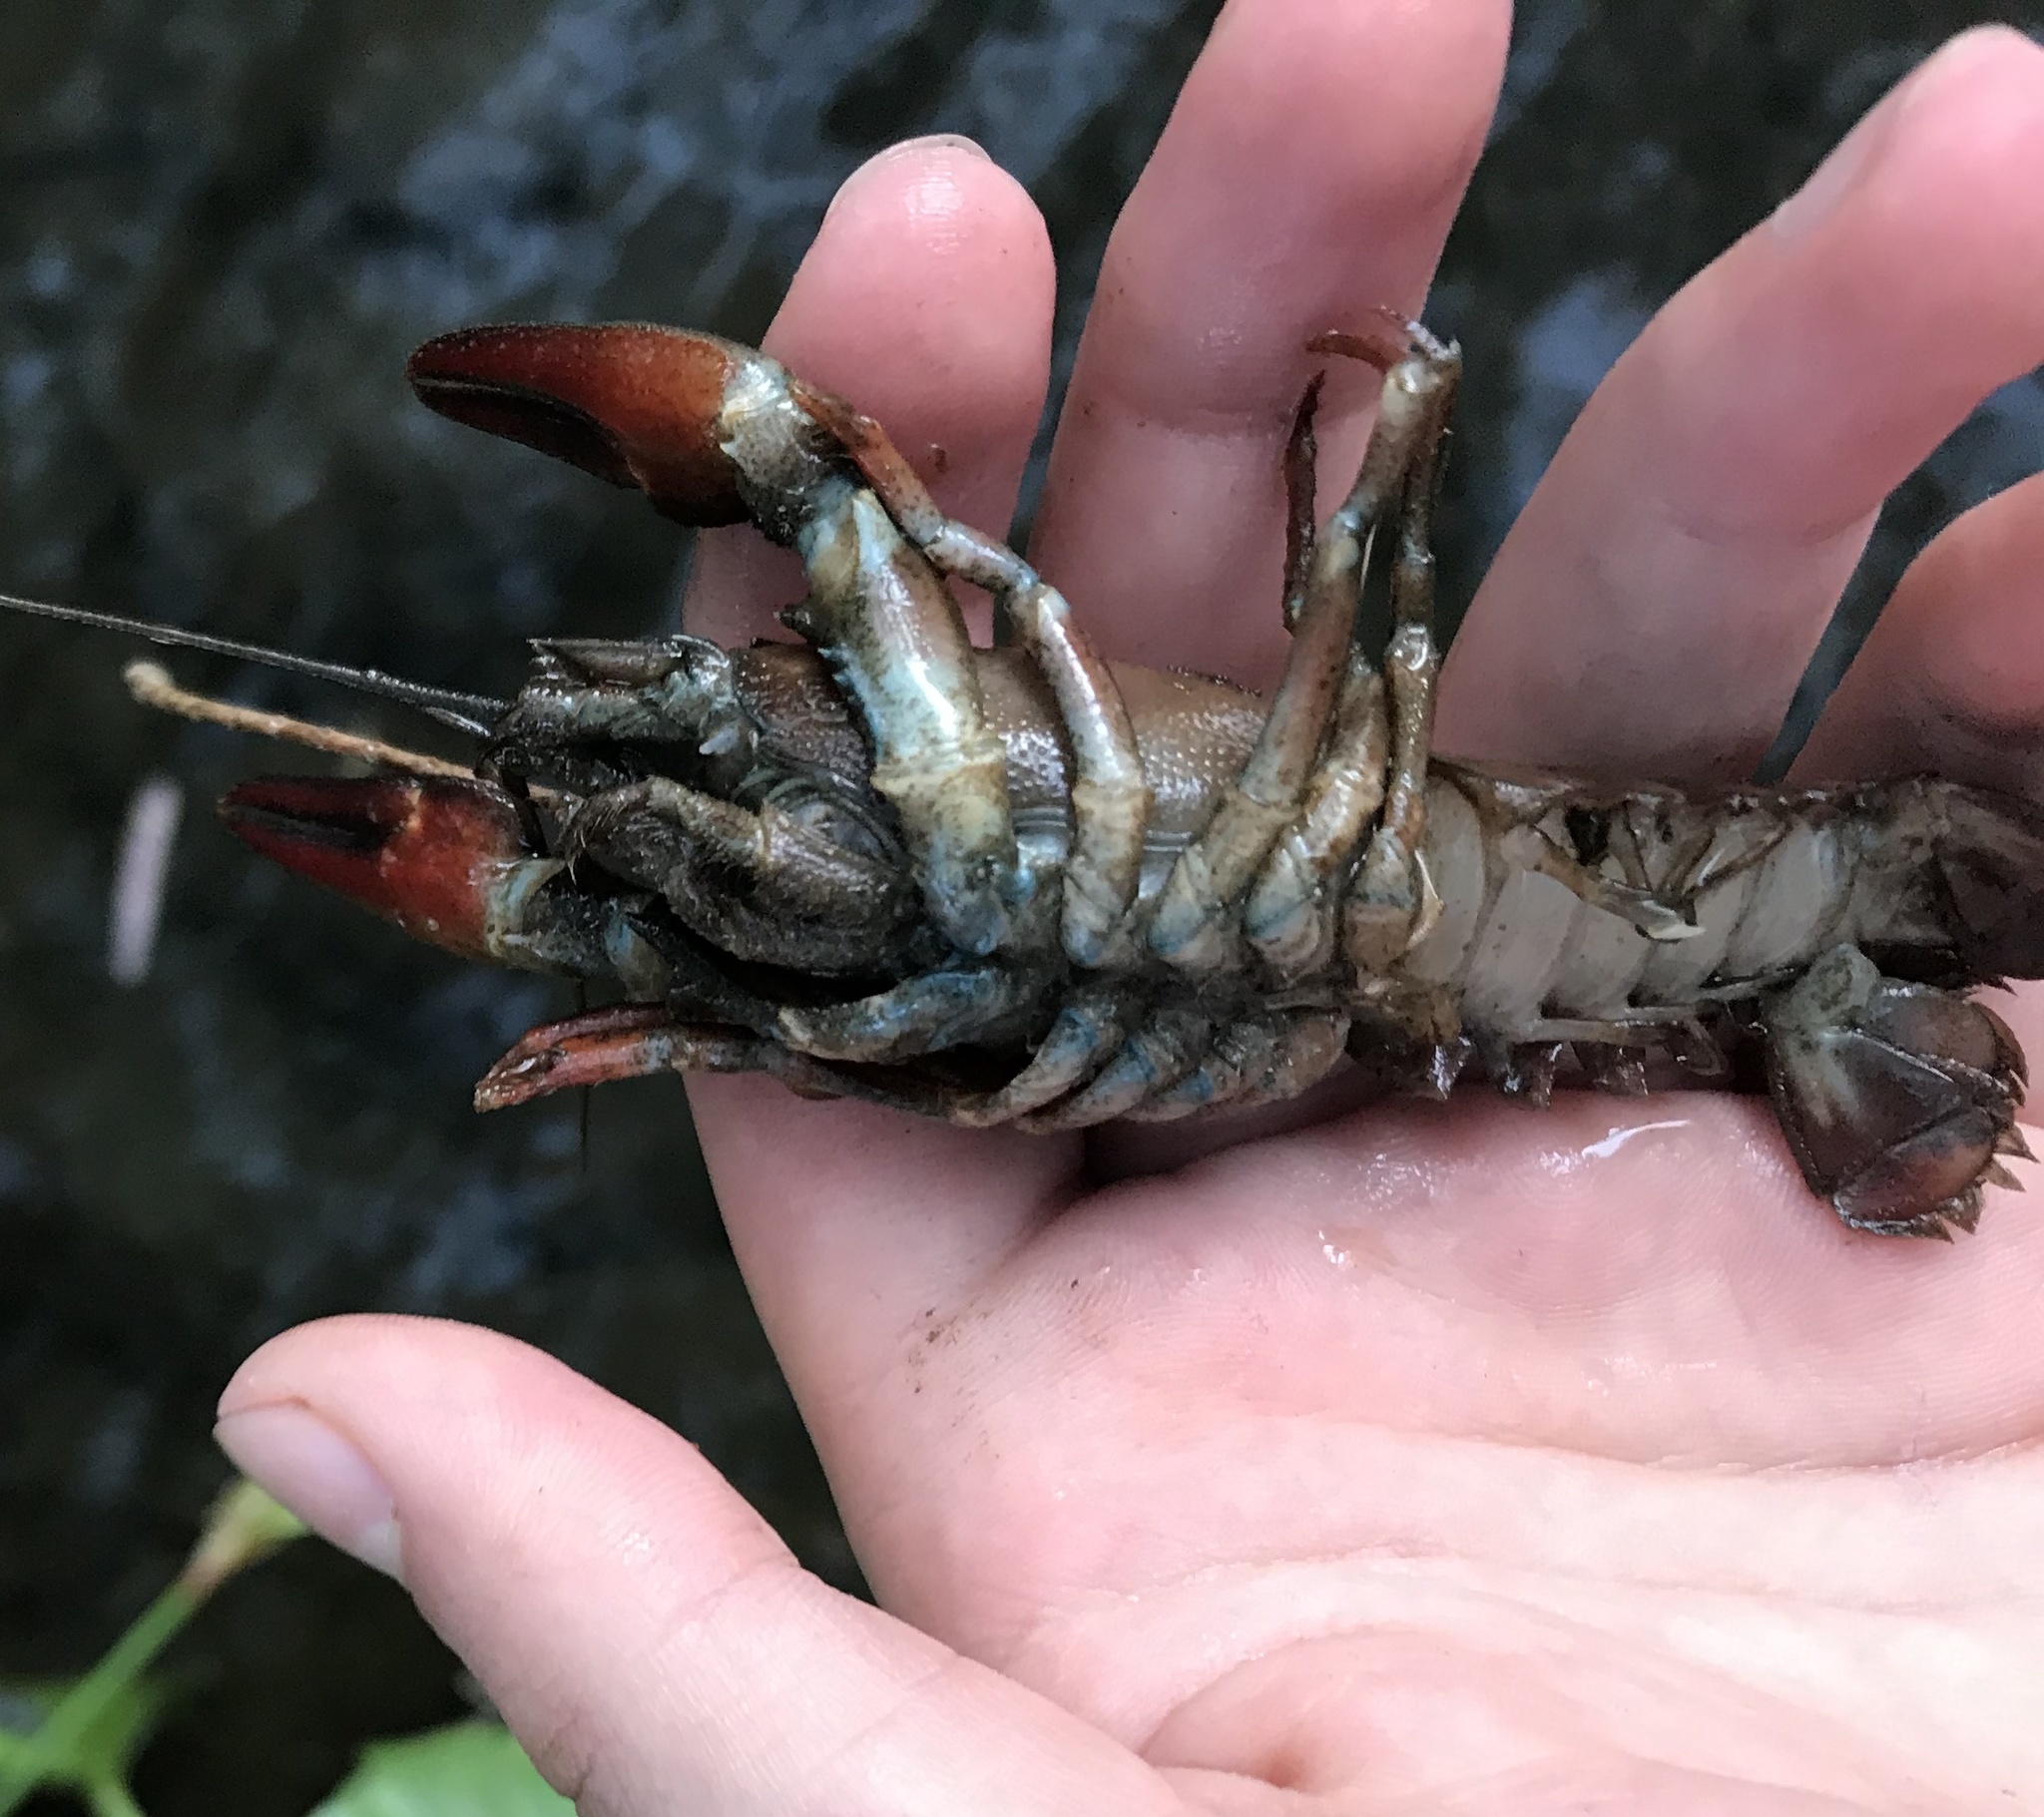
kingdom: Animalia
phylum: Arthropoda
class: Malacostraca
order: Decapoda
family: Astacidae
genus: Pacifastacus
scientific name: Pacifastacus leniusculus
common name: Signal crayfish
